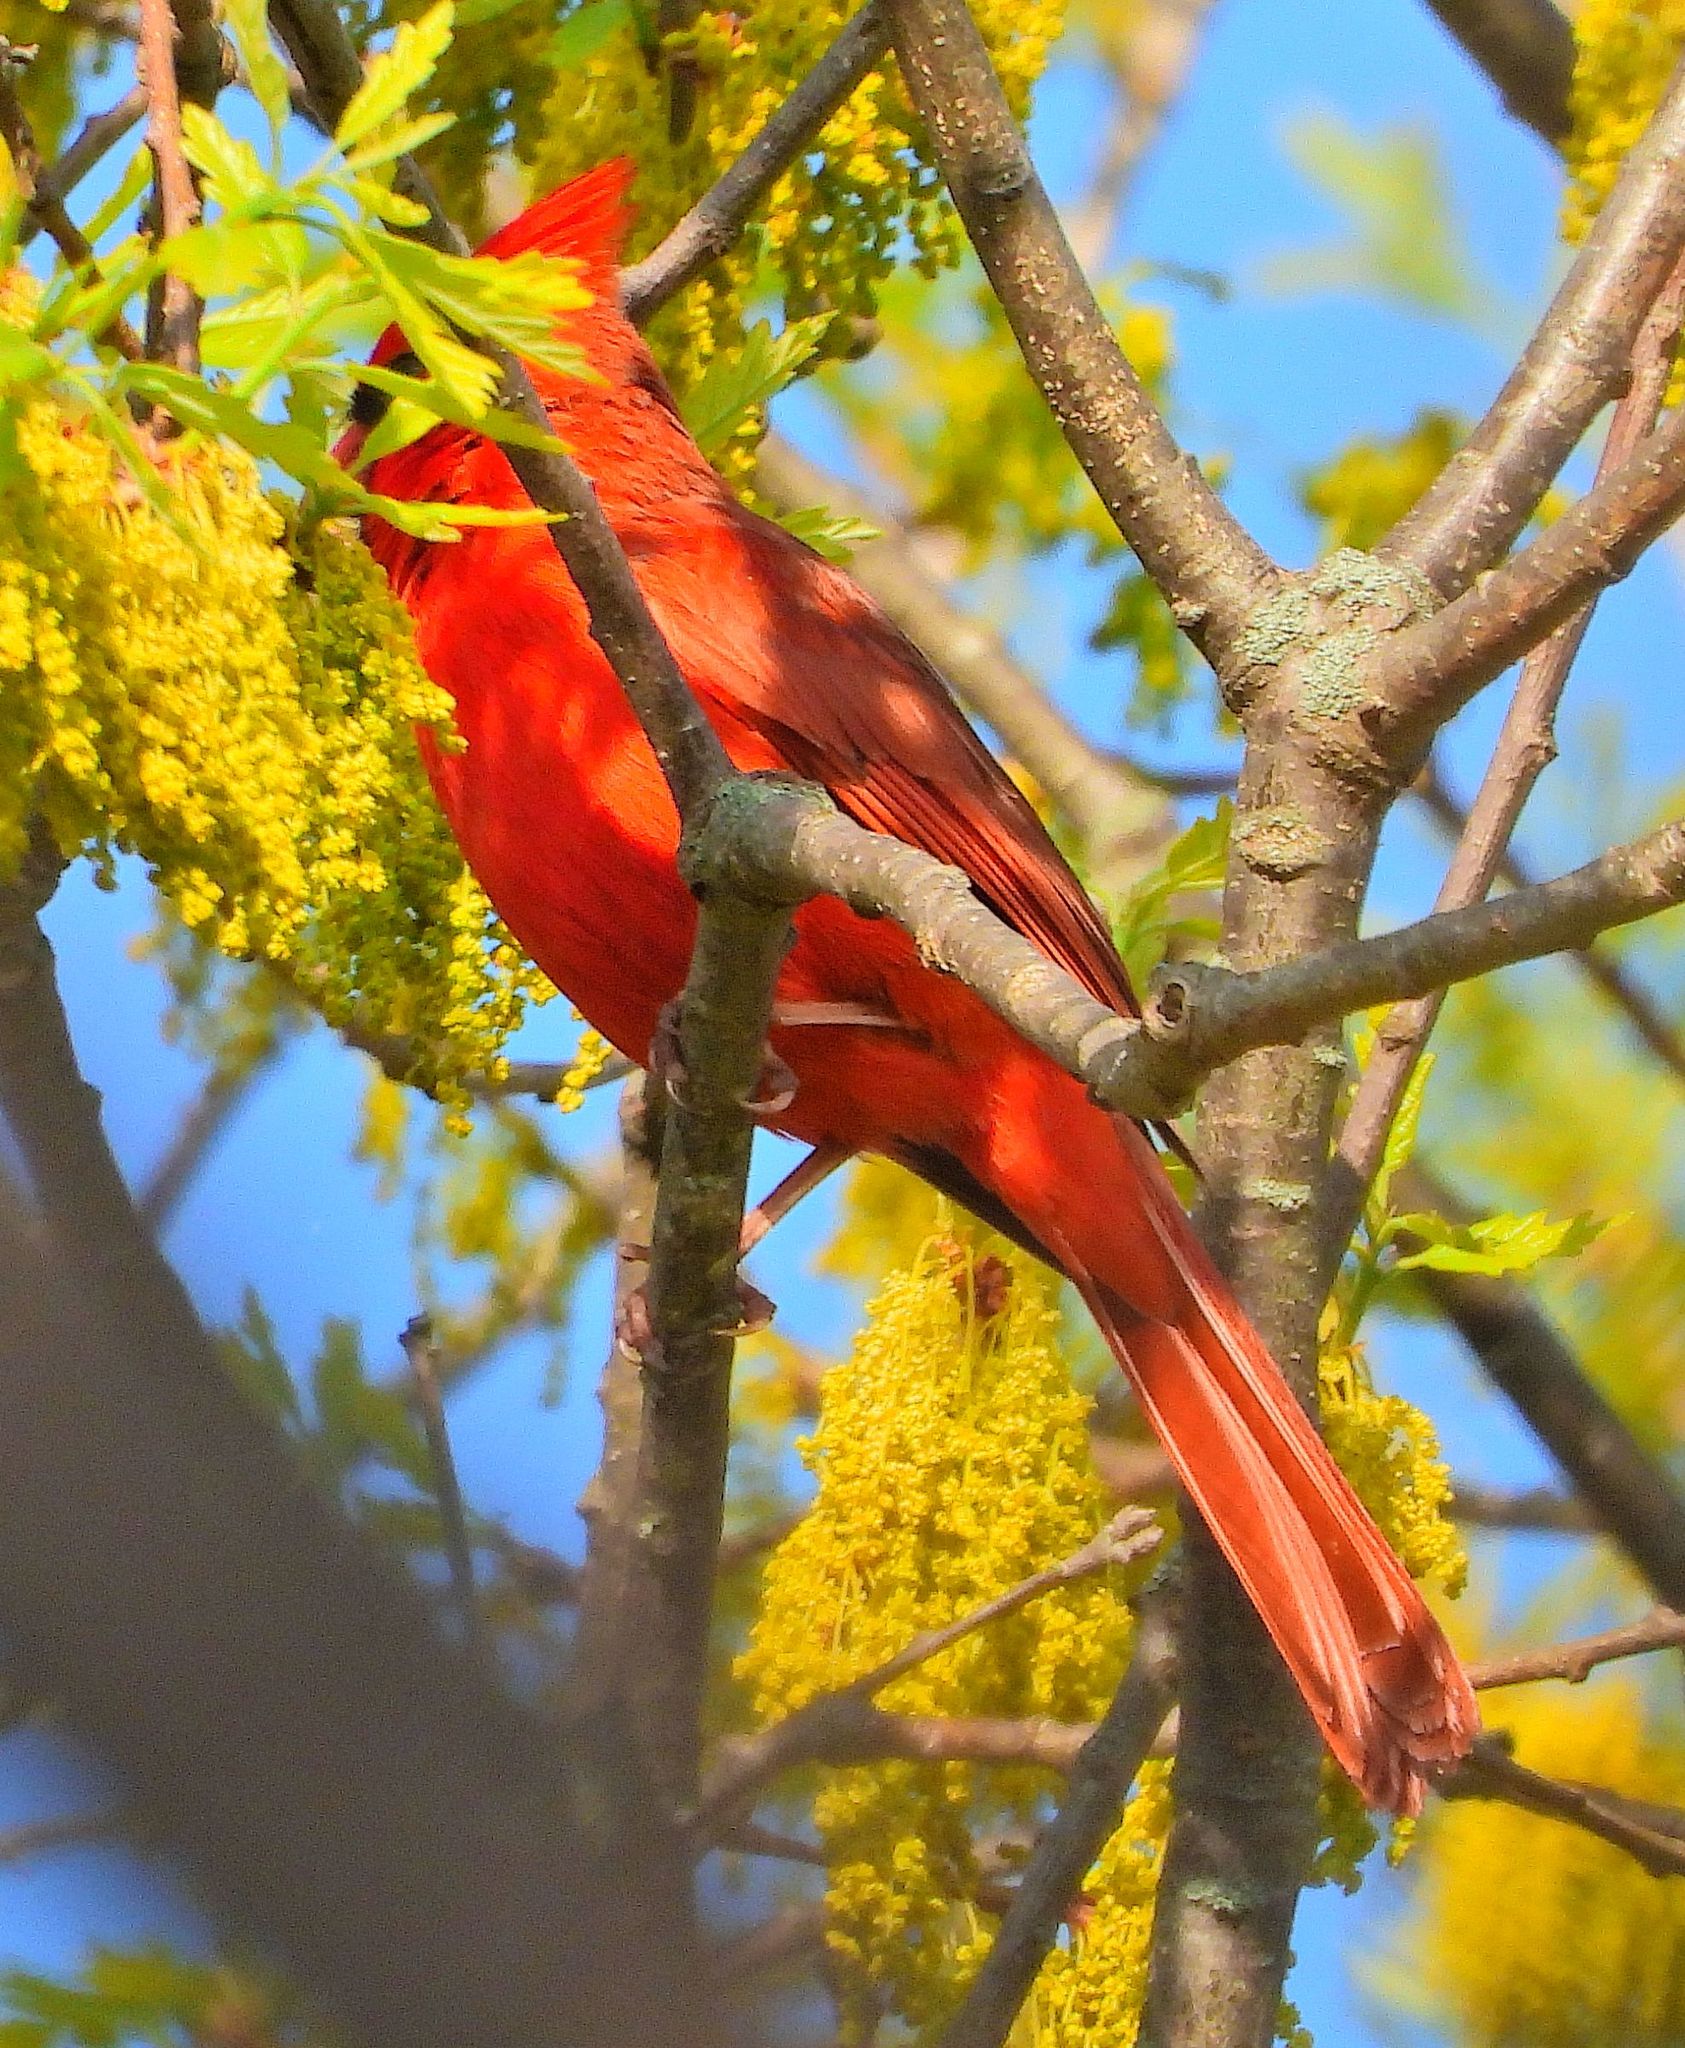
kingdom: Animalia
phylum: Chordata
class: Aves
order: Passeriformes
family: Cardinalidae
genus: Cardinalis
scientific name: Cardinalis cardinalis
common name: Northern cardinal
